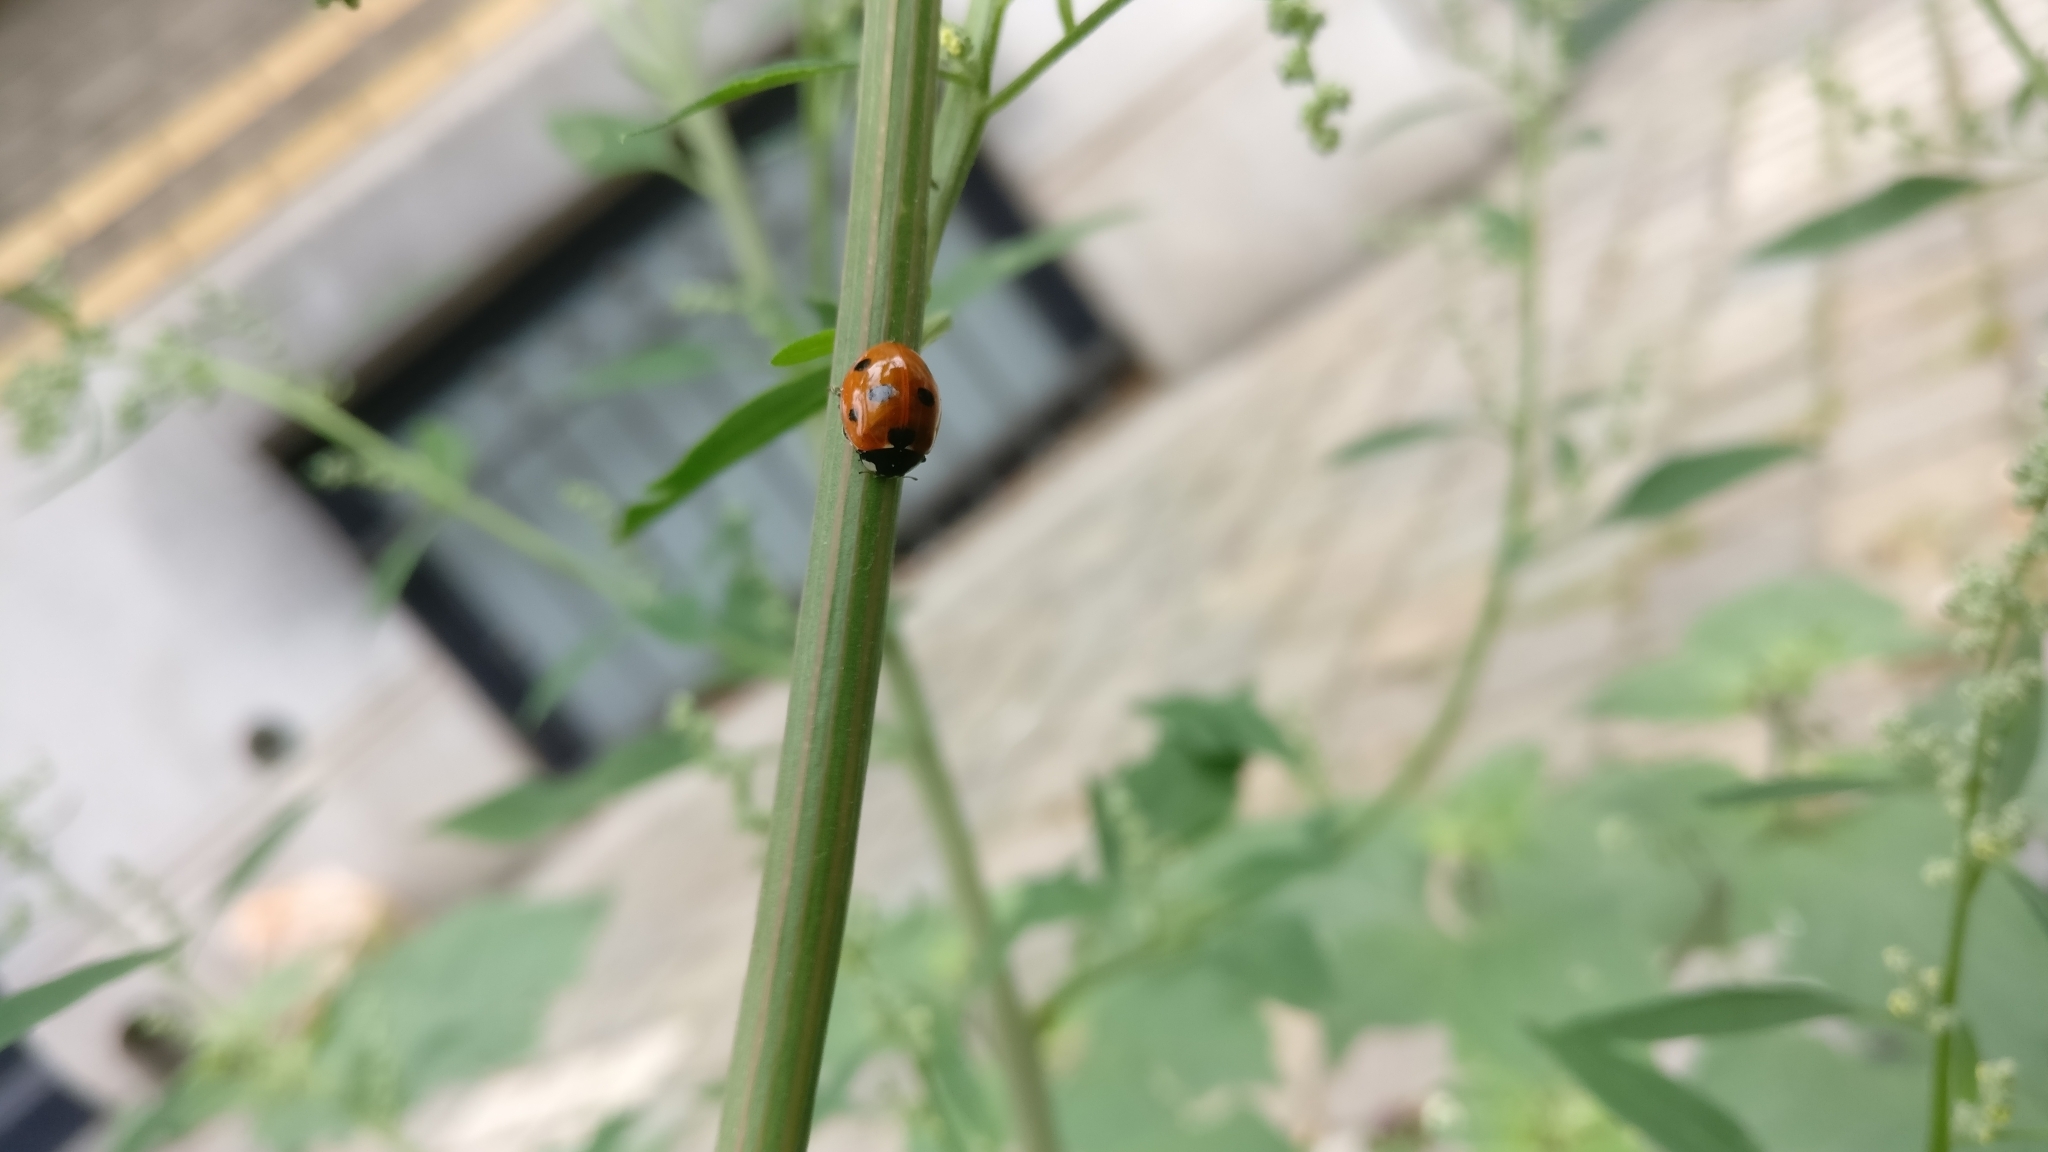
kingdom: Animalia
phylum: Arthropoda
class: Insecta
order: Coleoptera
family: Coccinellidae
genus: Coccinella
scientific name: Coccinella septempunctata
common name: Sevenspotted lady beetle
